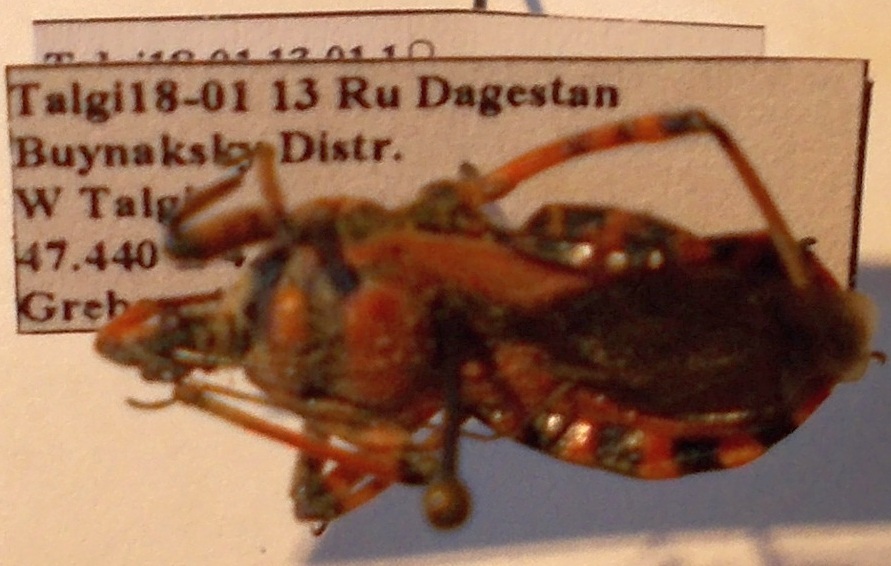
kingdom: Animalia
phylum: Arthropoda
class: Insecta
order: Hemiptera
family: Reduviidae
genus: Rhynocoris
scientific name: Rhynocoris iracundus
